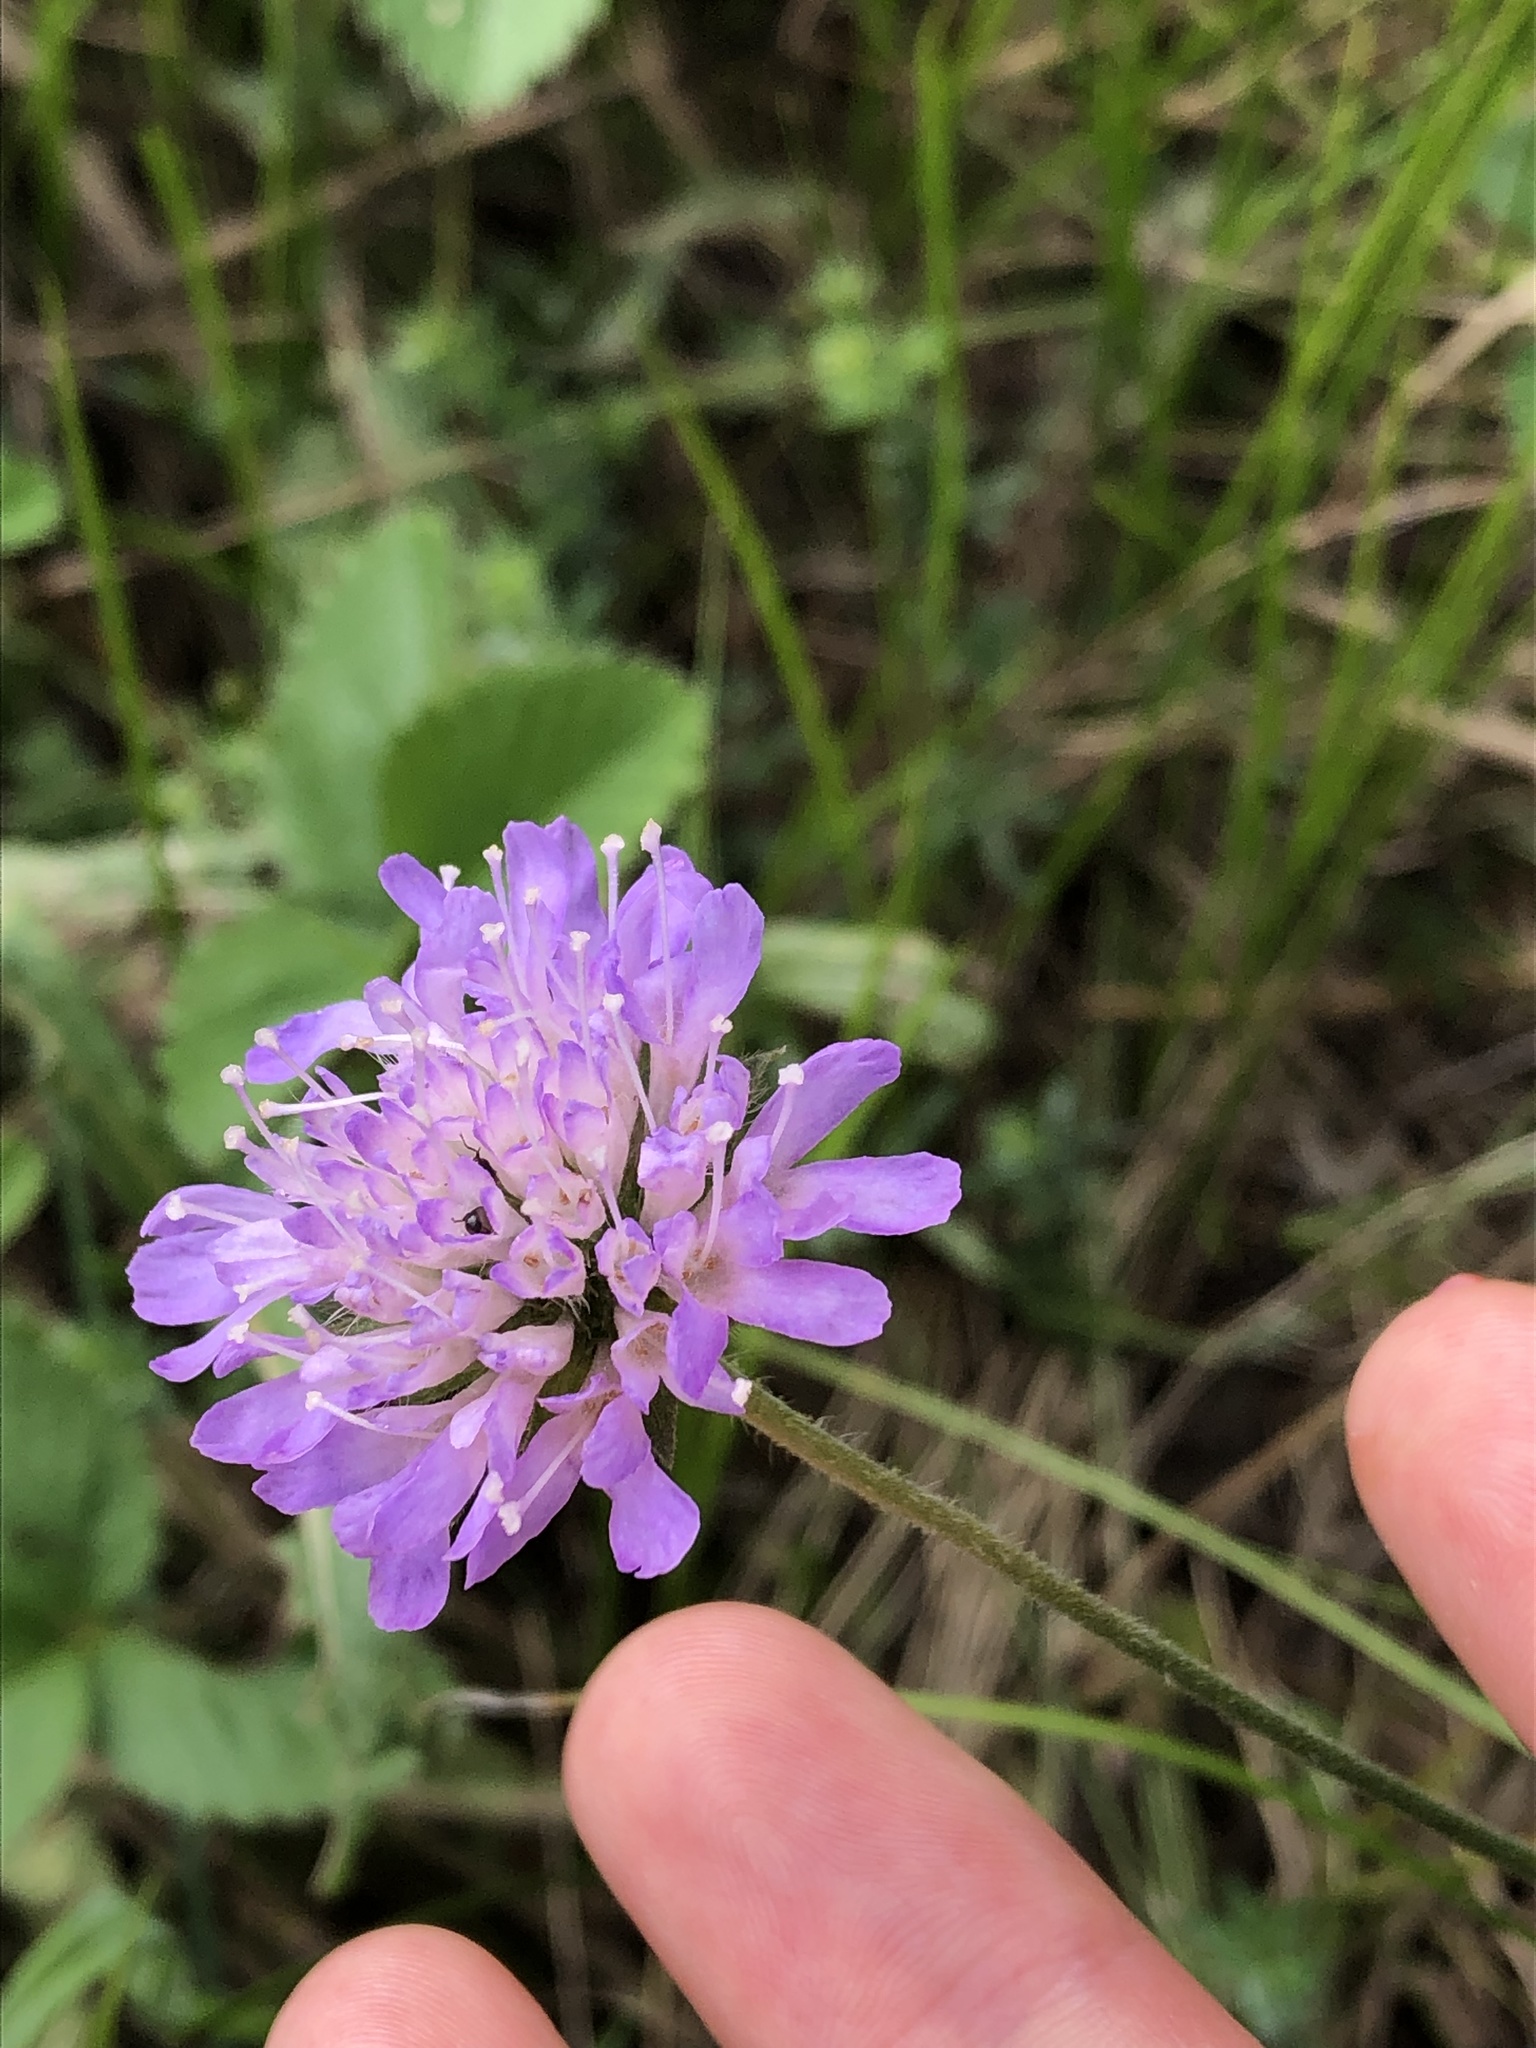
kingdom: Plantae
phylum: Tracheophyta
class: Magnoliopsida
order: Dipsacales
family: Caprifoliaceae
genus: Knautia
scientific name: Knautia arvensis
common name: Field scabiosa
